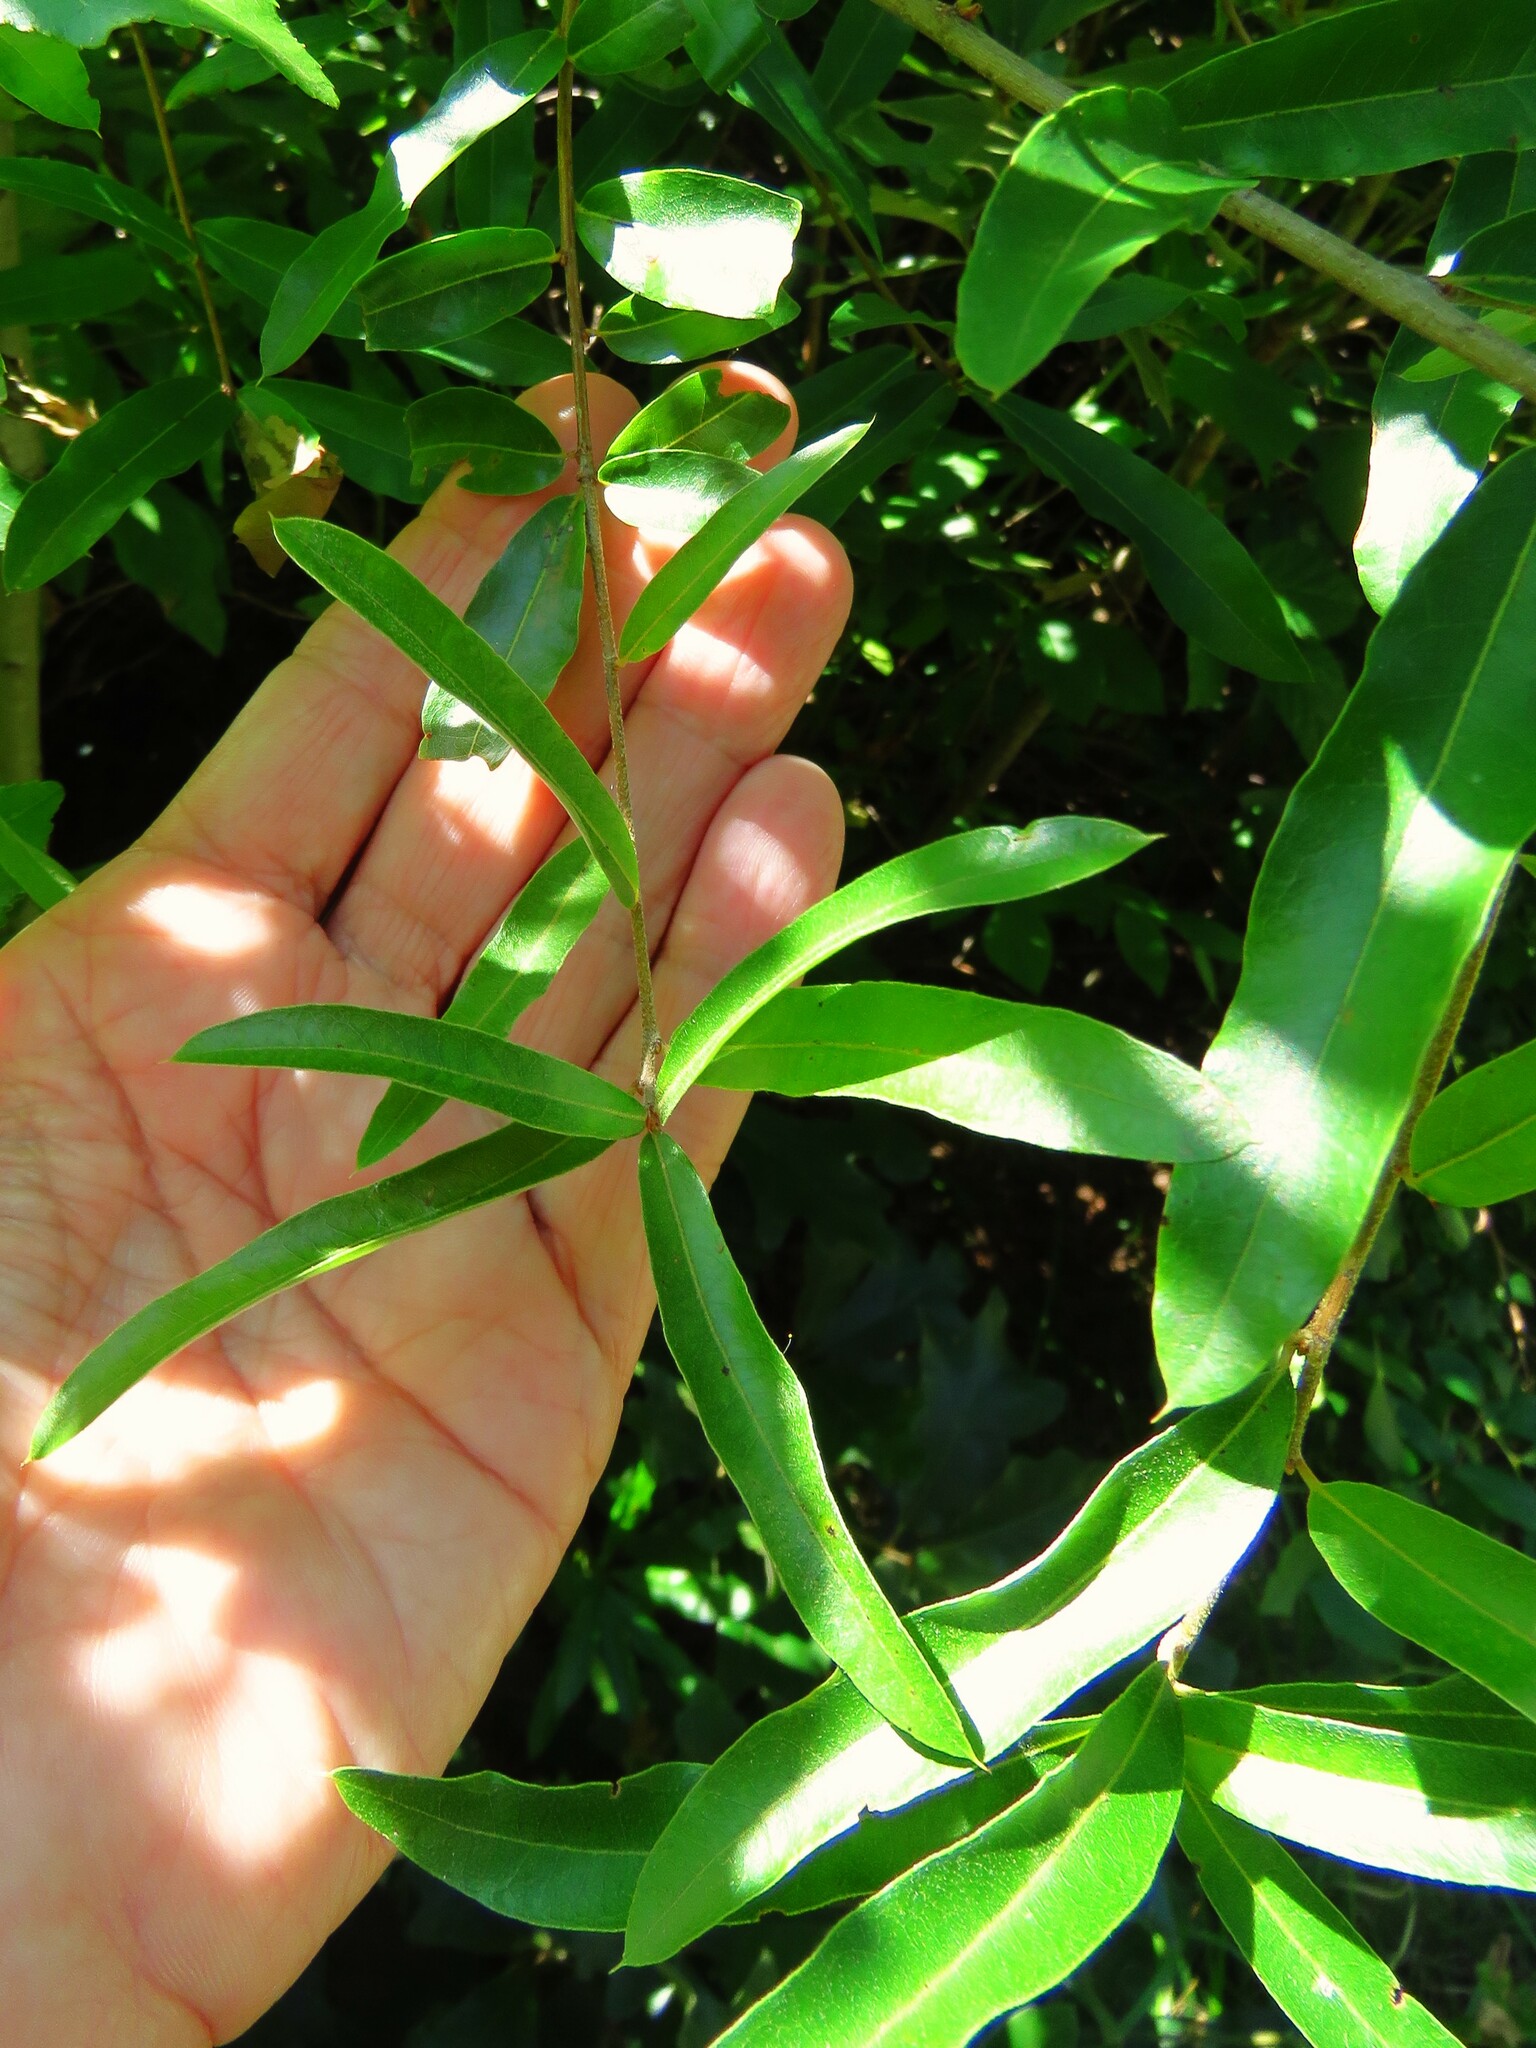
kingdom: Plantae
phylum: Tracheophyta
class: Magnoliopsida
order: Fagales
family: Fagaceae
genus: Quercus
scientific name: Quercus phellos
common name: Willow oak
